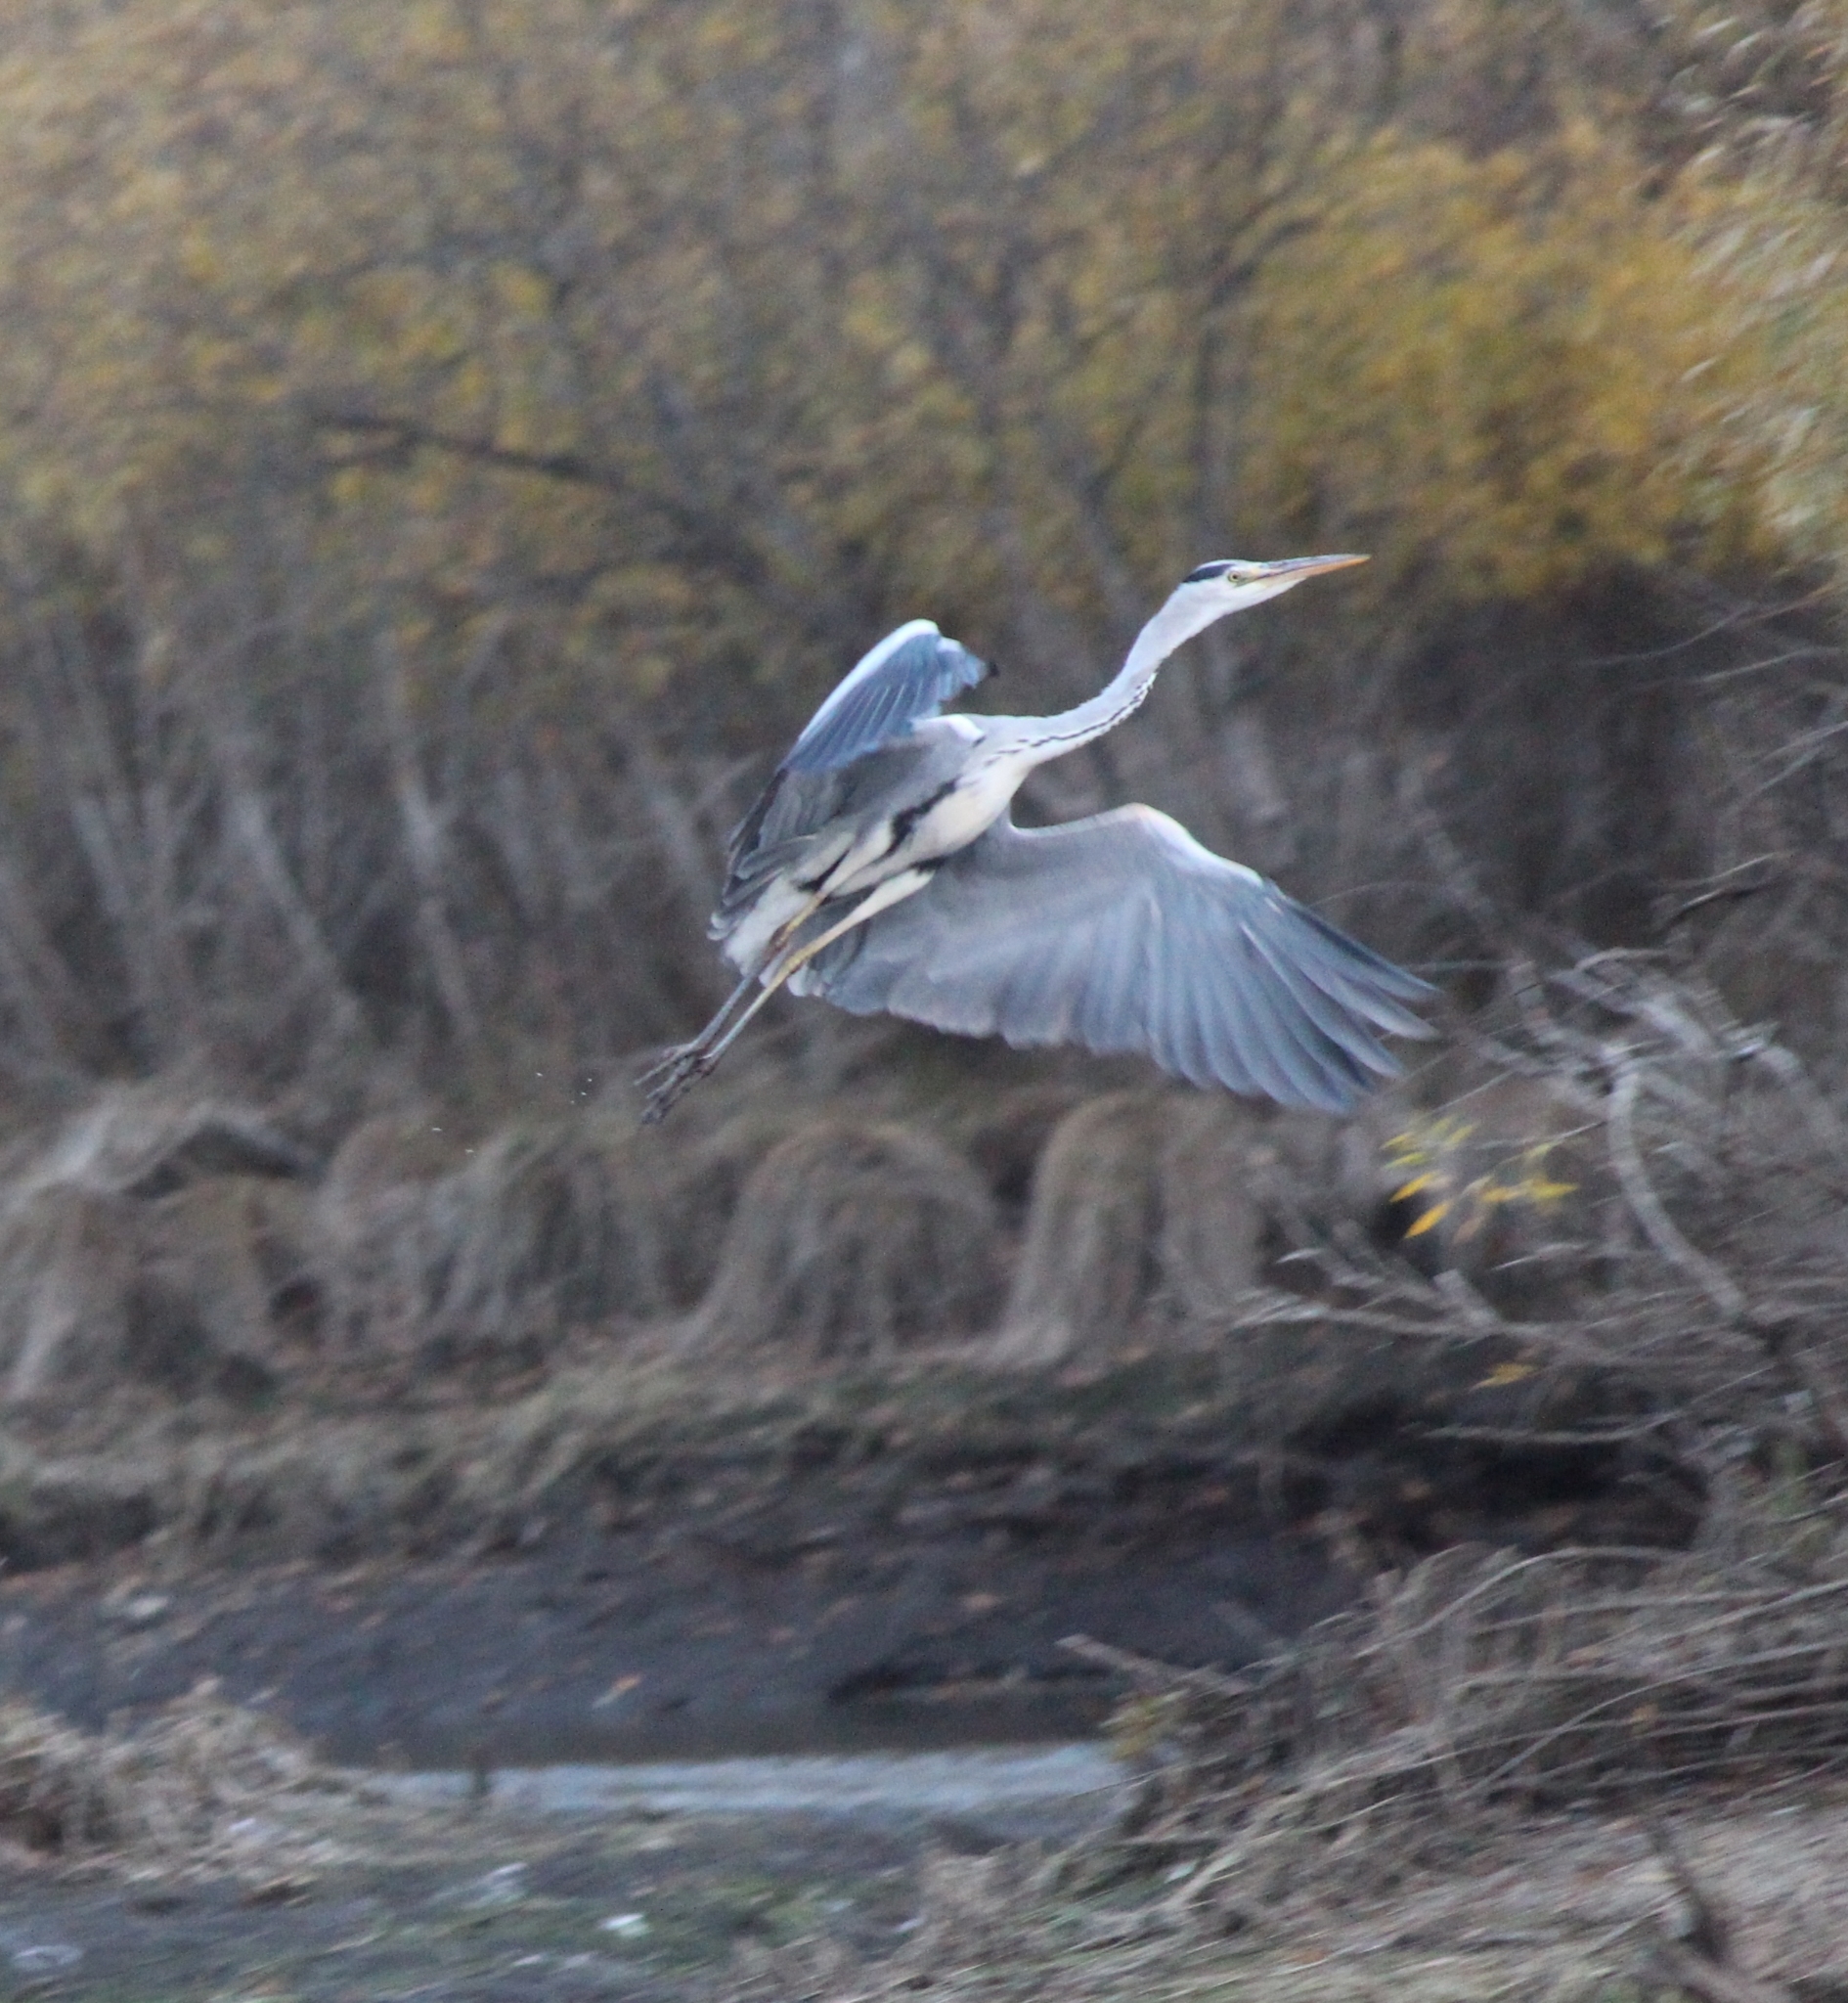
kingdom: Animalia
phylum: Chordata
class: Aves
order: Pelecaniformes
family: Ardeidae
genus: Ardea
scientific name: Ardea cinerea
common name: Grey heron
